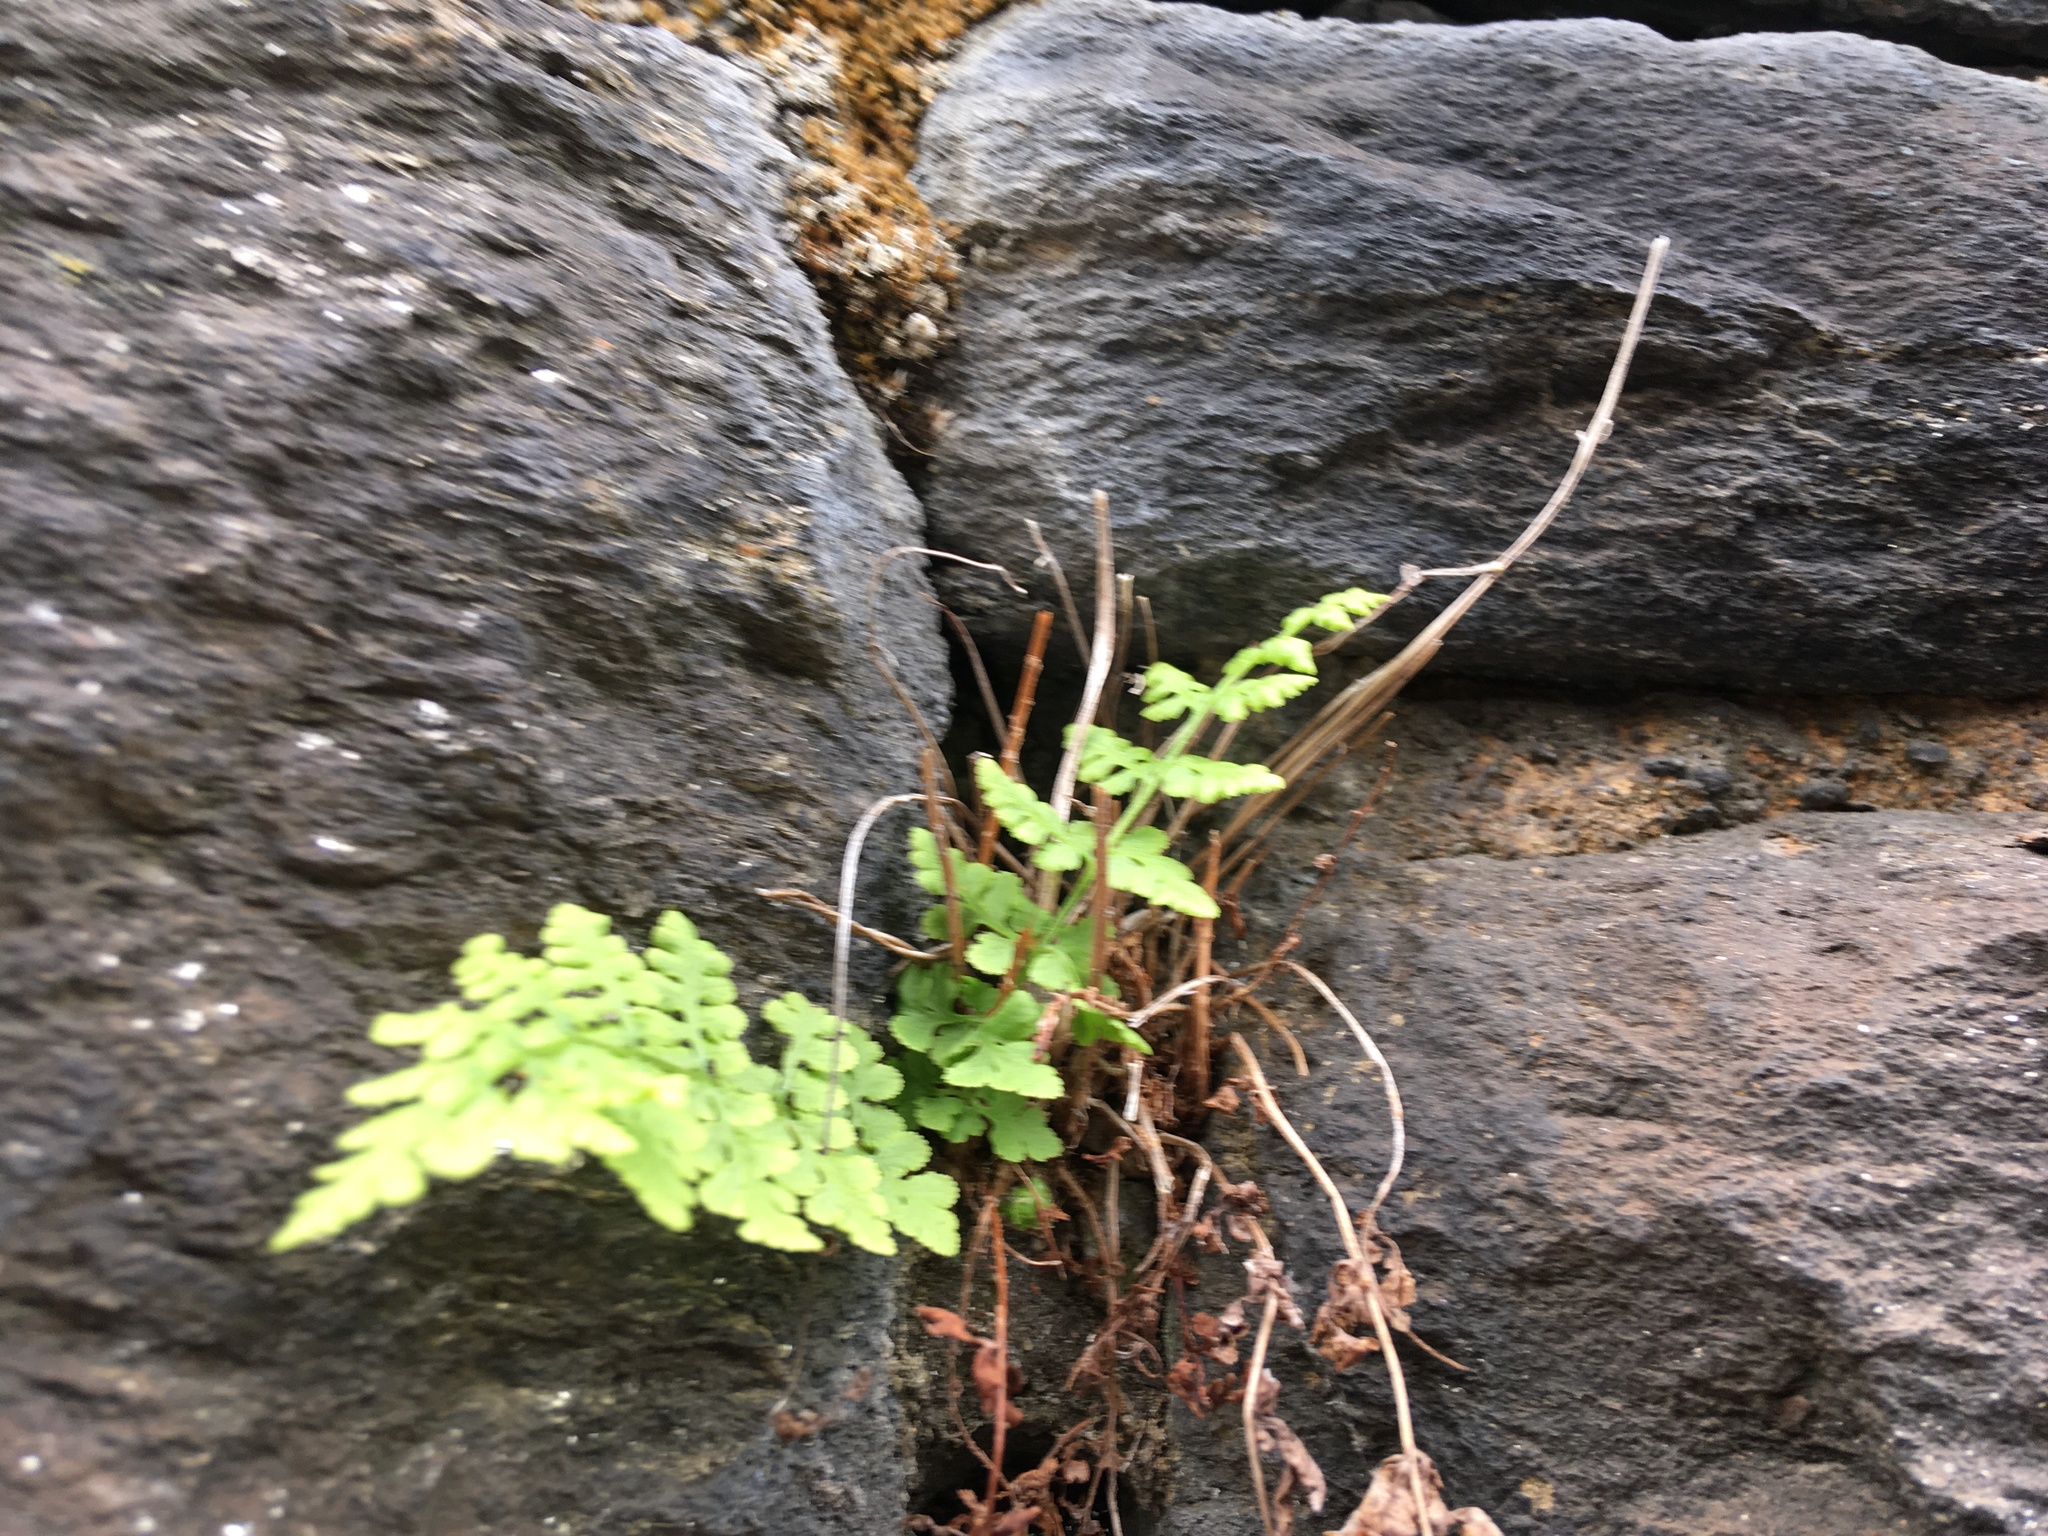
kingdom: Plantae
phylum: Tracheophyta
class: Polypodiopsida
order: Polypodiales
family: Woodsiaceae
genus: Physematium
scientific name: Physematium obtusum
